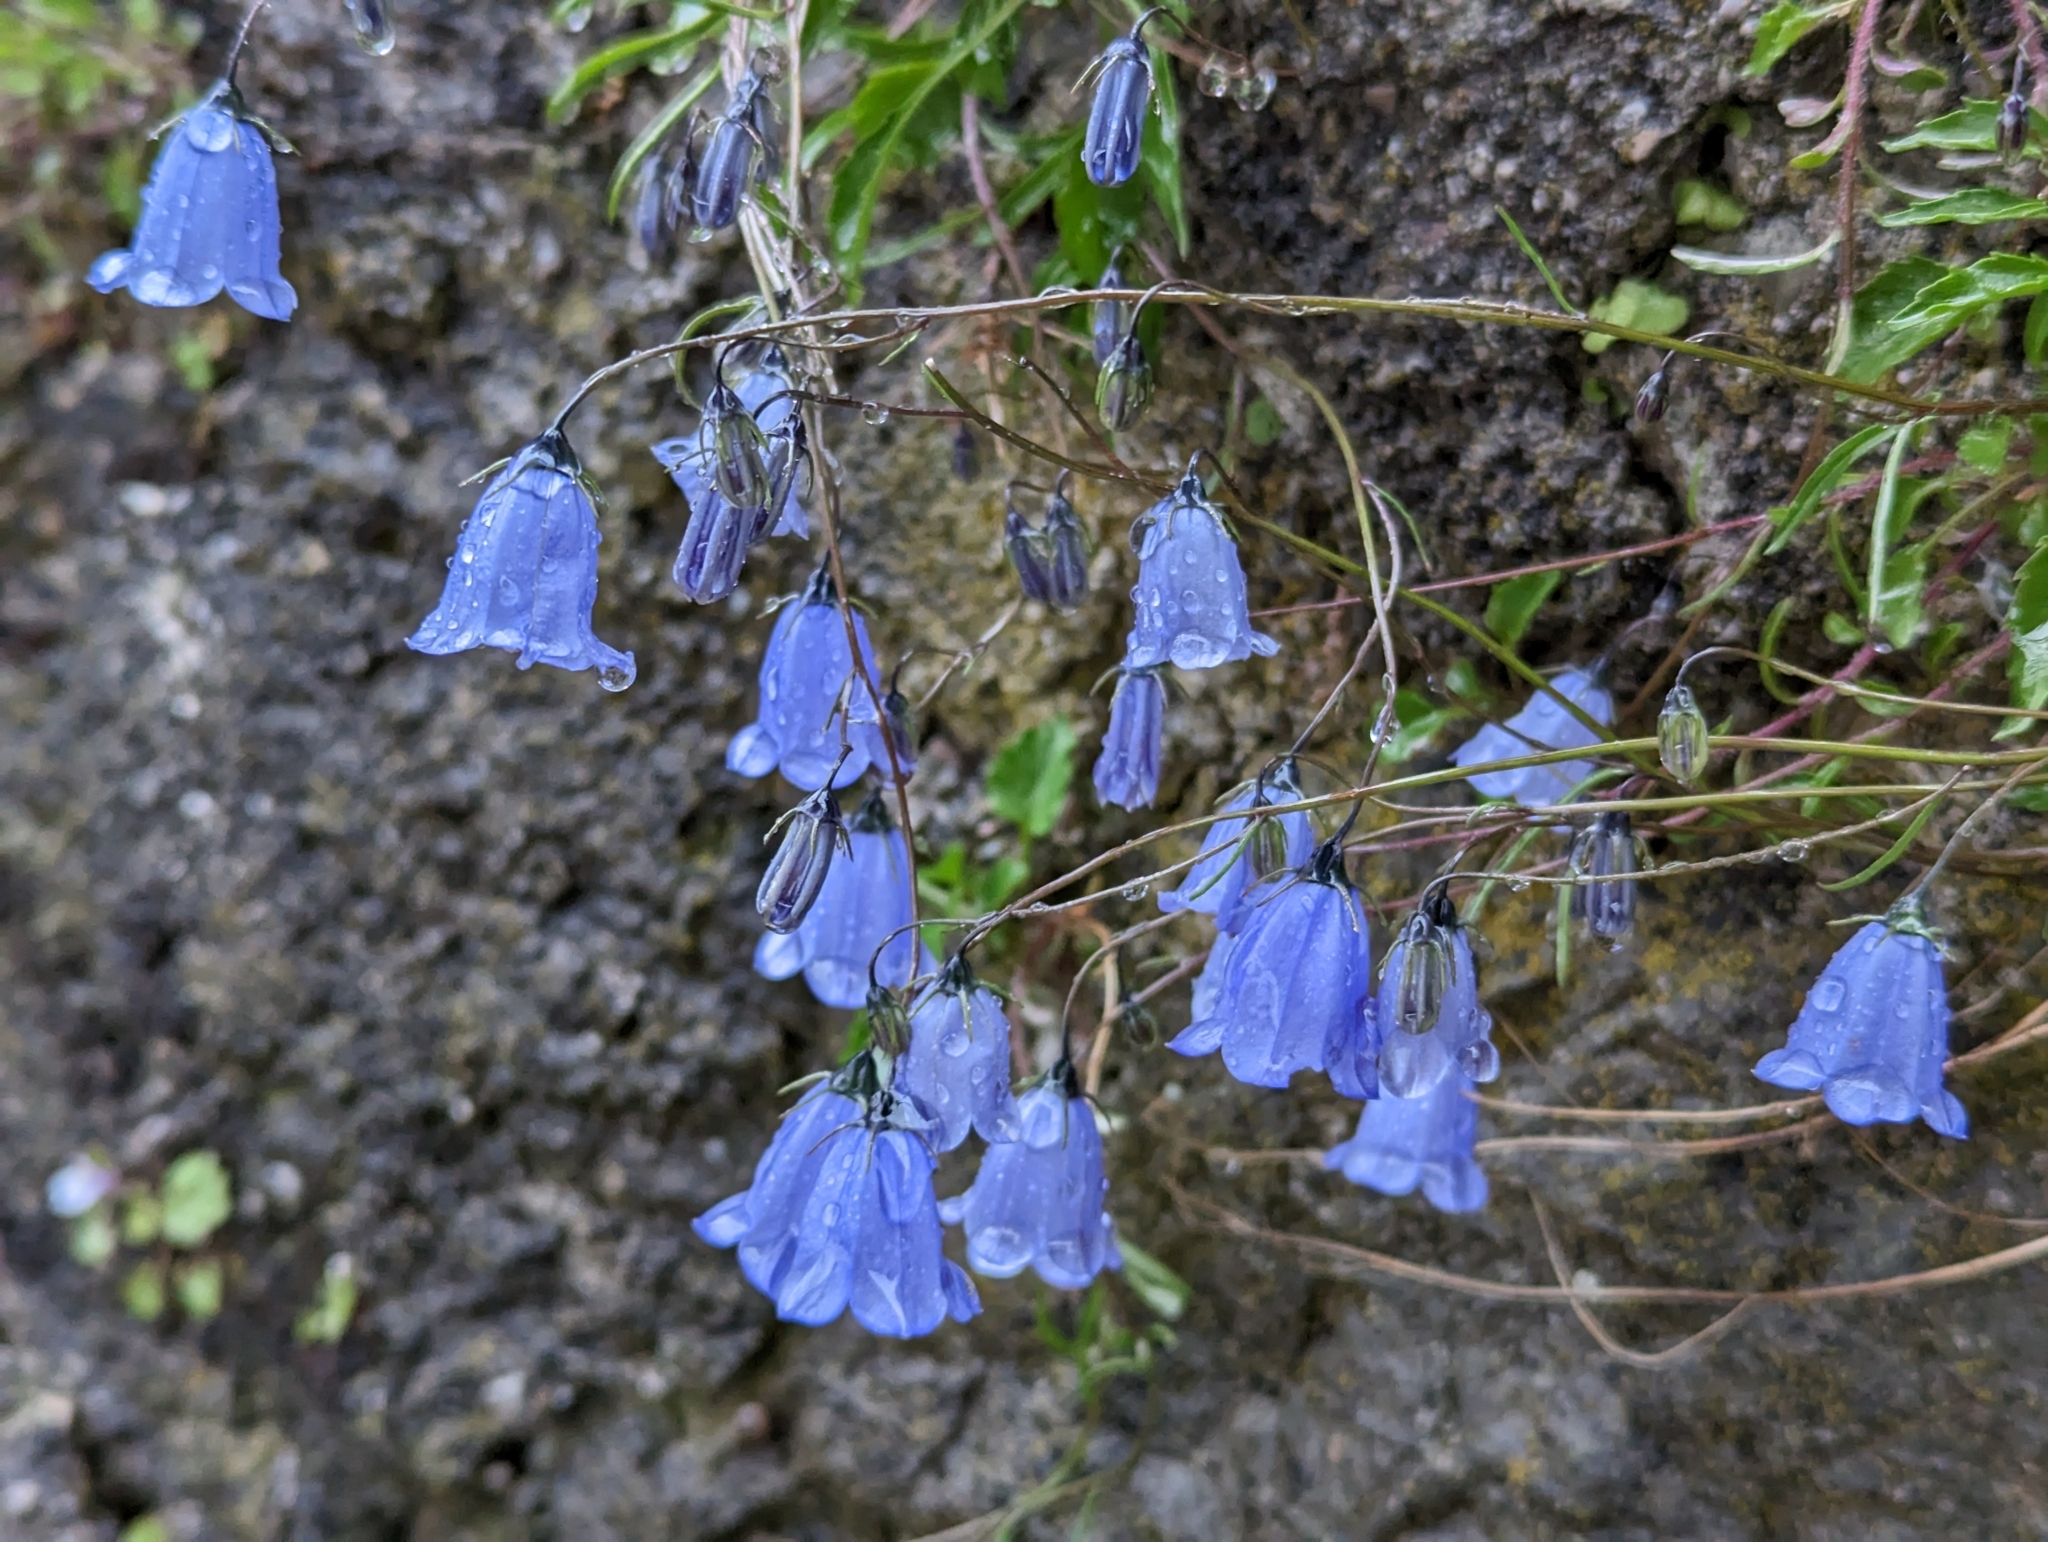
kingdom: Plantae
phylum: Tracheophyta
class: Magnoliopsida
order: Asterales
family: Campanulaceae
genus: Campanula
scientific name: Campanula cochleariifolia
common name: Fairies'-thimbles
